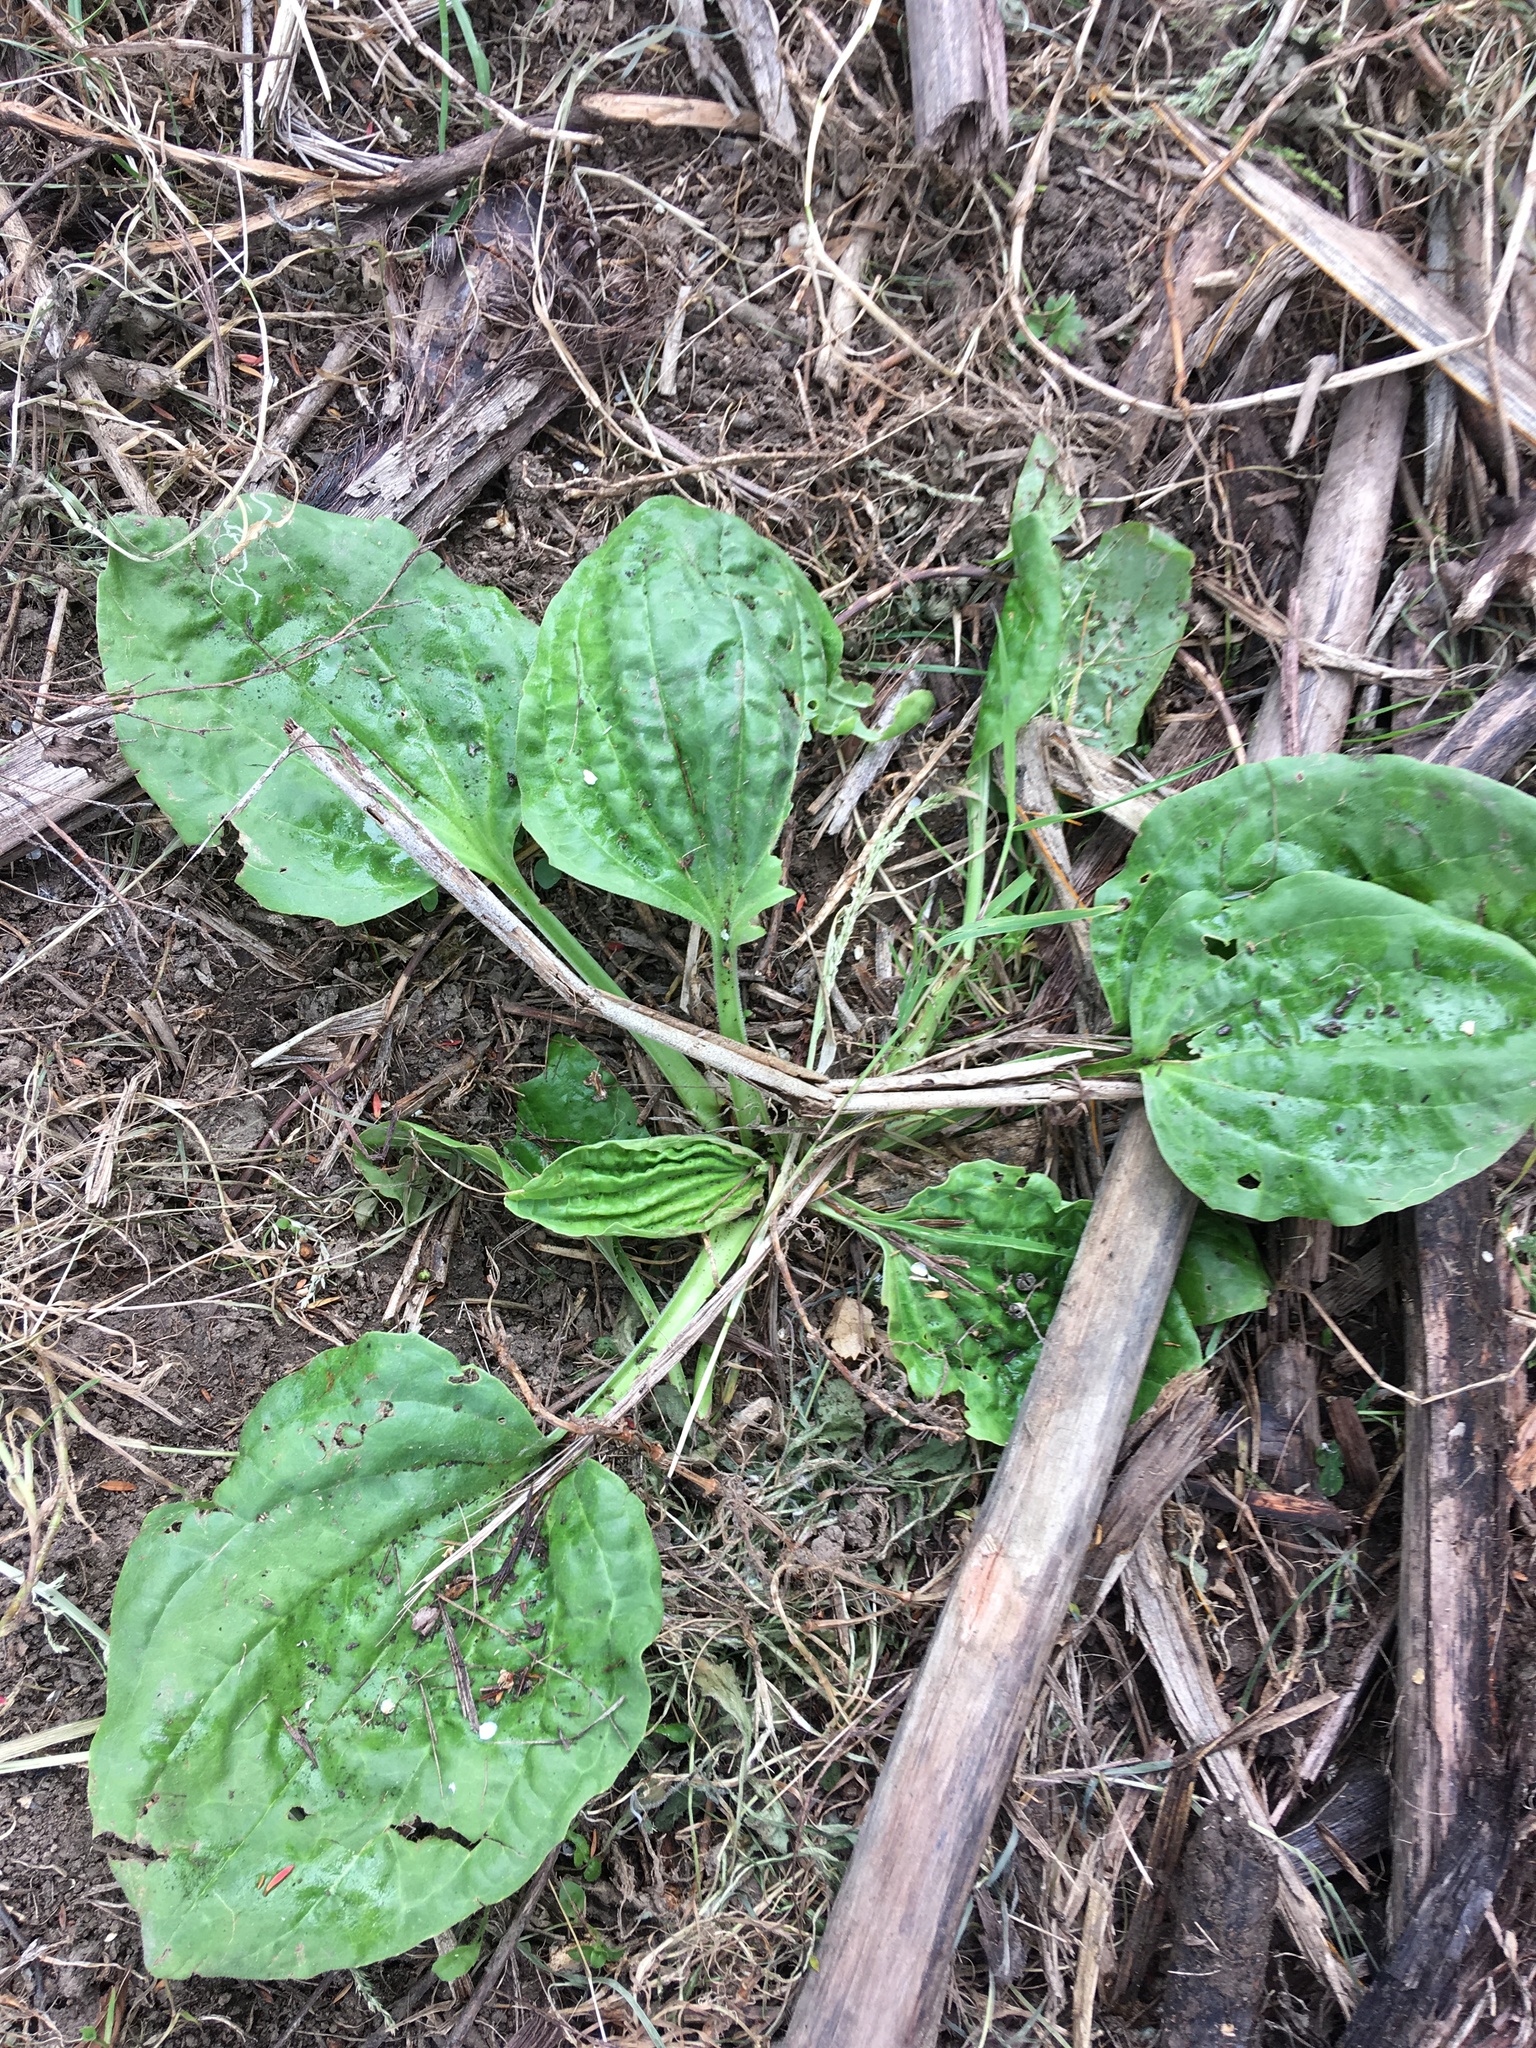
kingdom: Plantae
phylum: Tracheophyta
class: Magnoliopsida
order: Lamiales
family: Plantaginaceae
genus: Plantago
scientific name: Plantago major
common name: Common plantain
